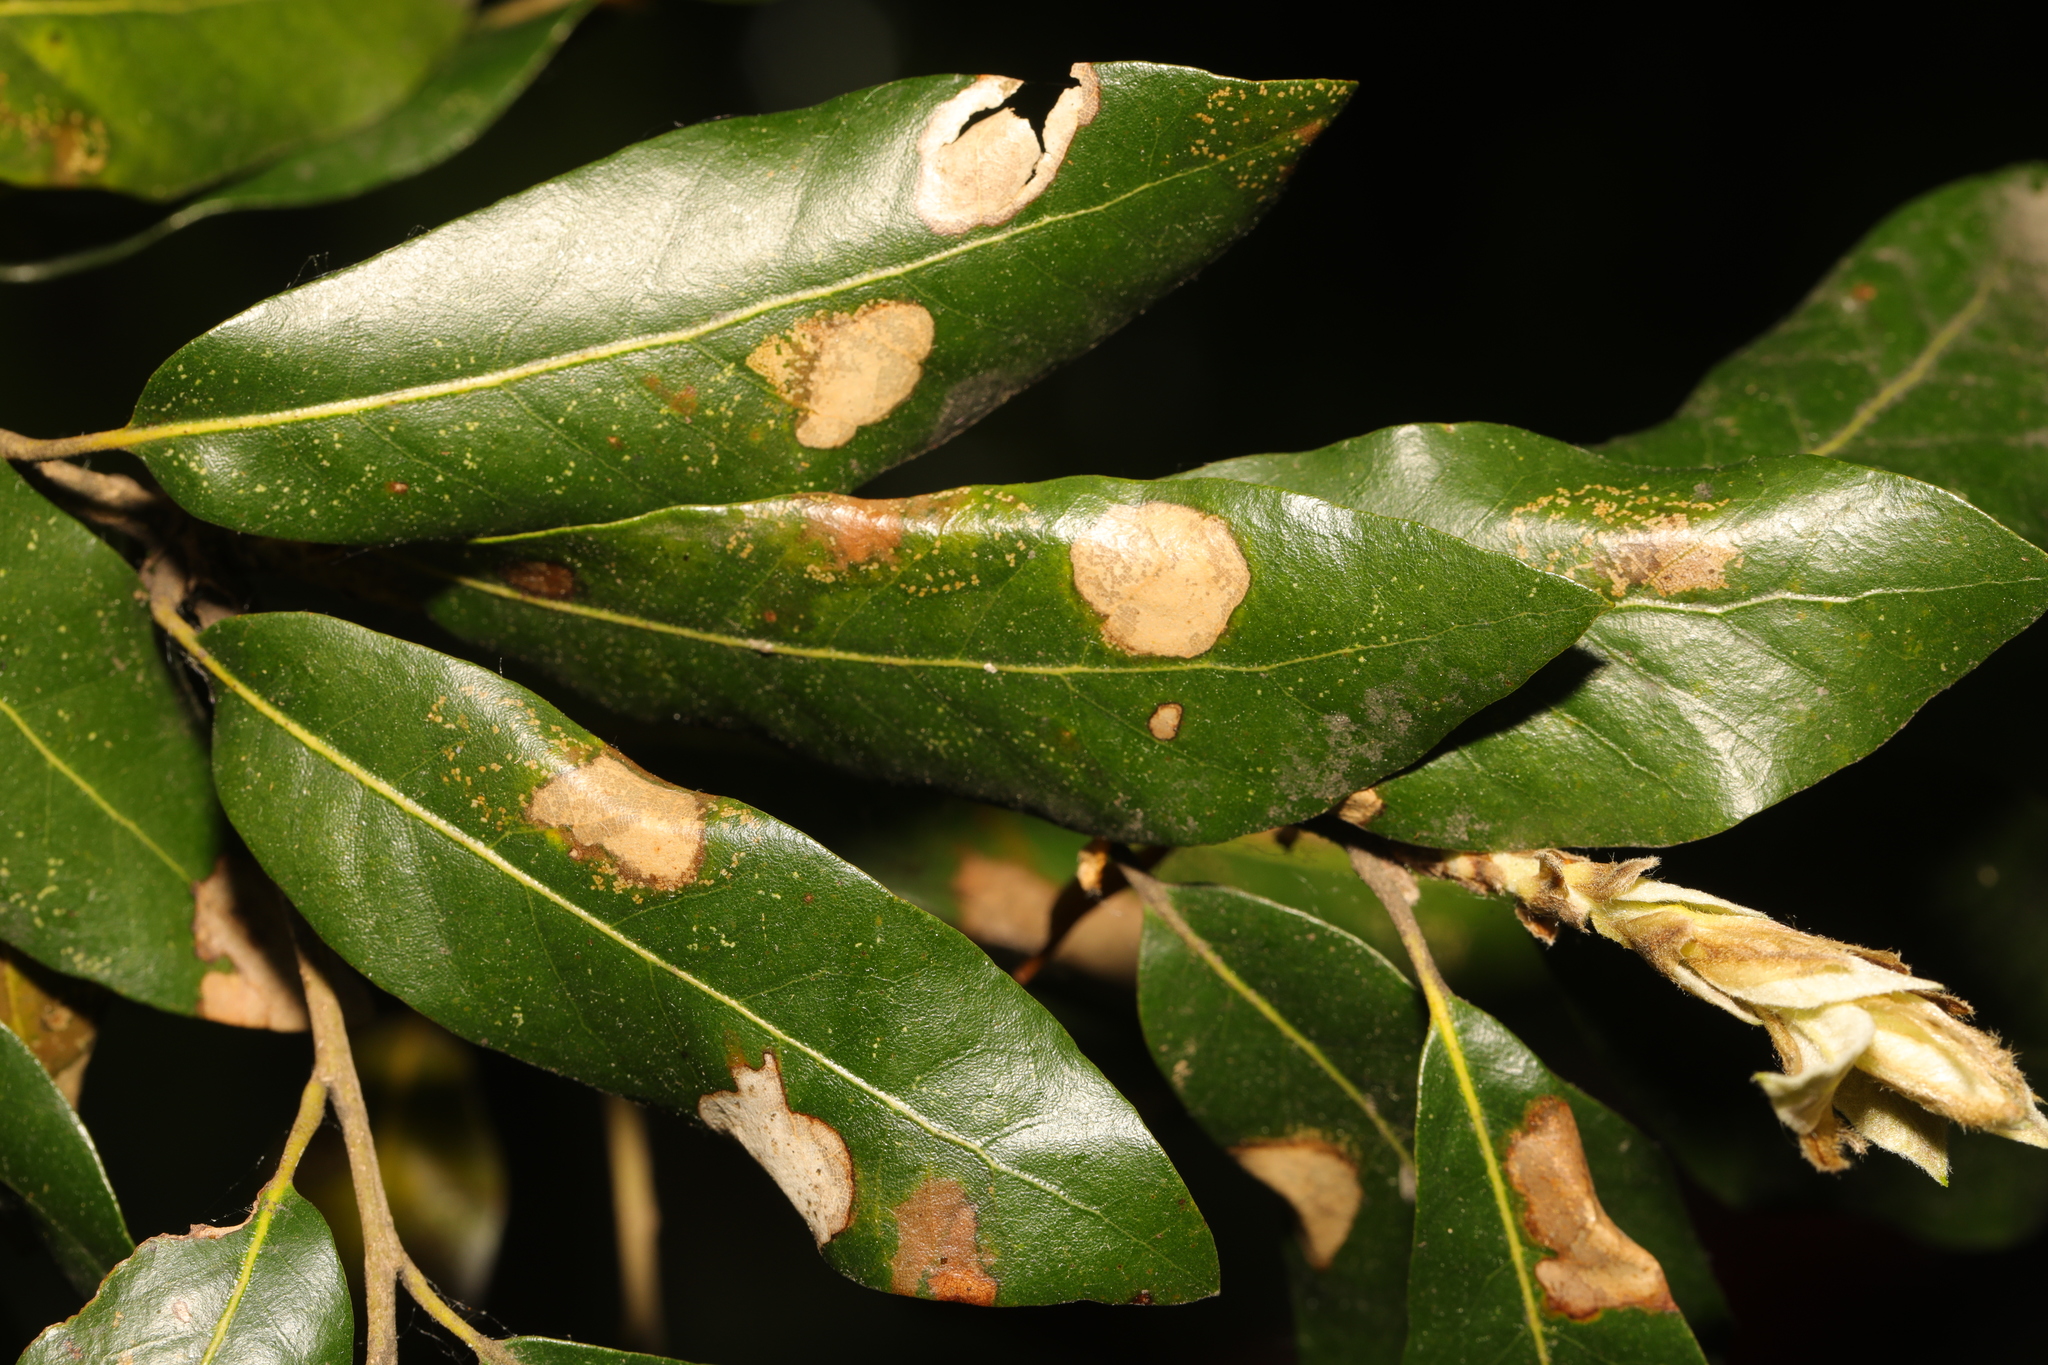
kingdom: Plantae
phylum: Tracheophyta
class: Magnoliopsida
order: Fagales
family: Fagaceae
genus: Quercus
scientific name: Quercus ilex
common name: Evergreen oak
